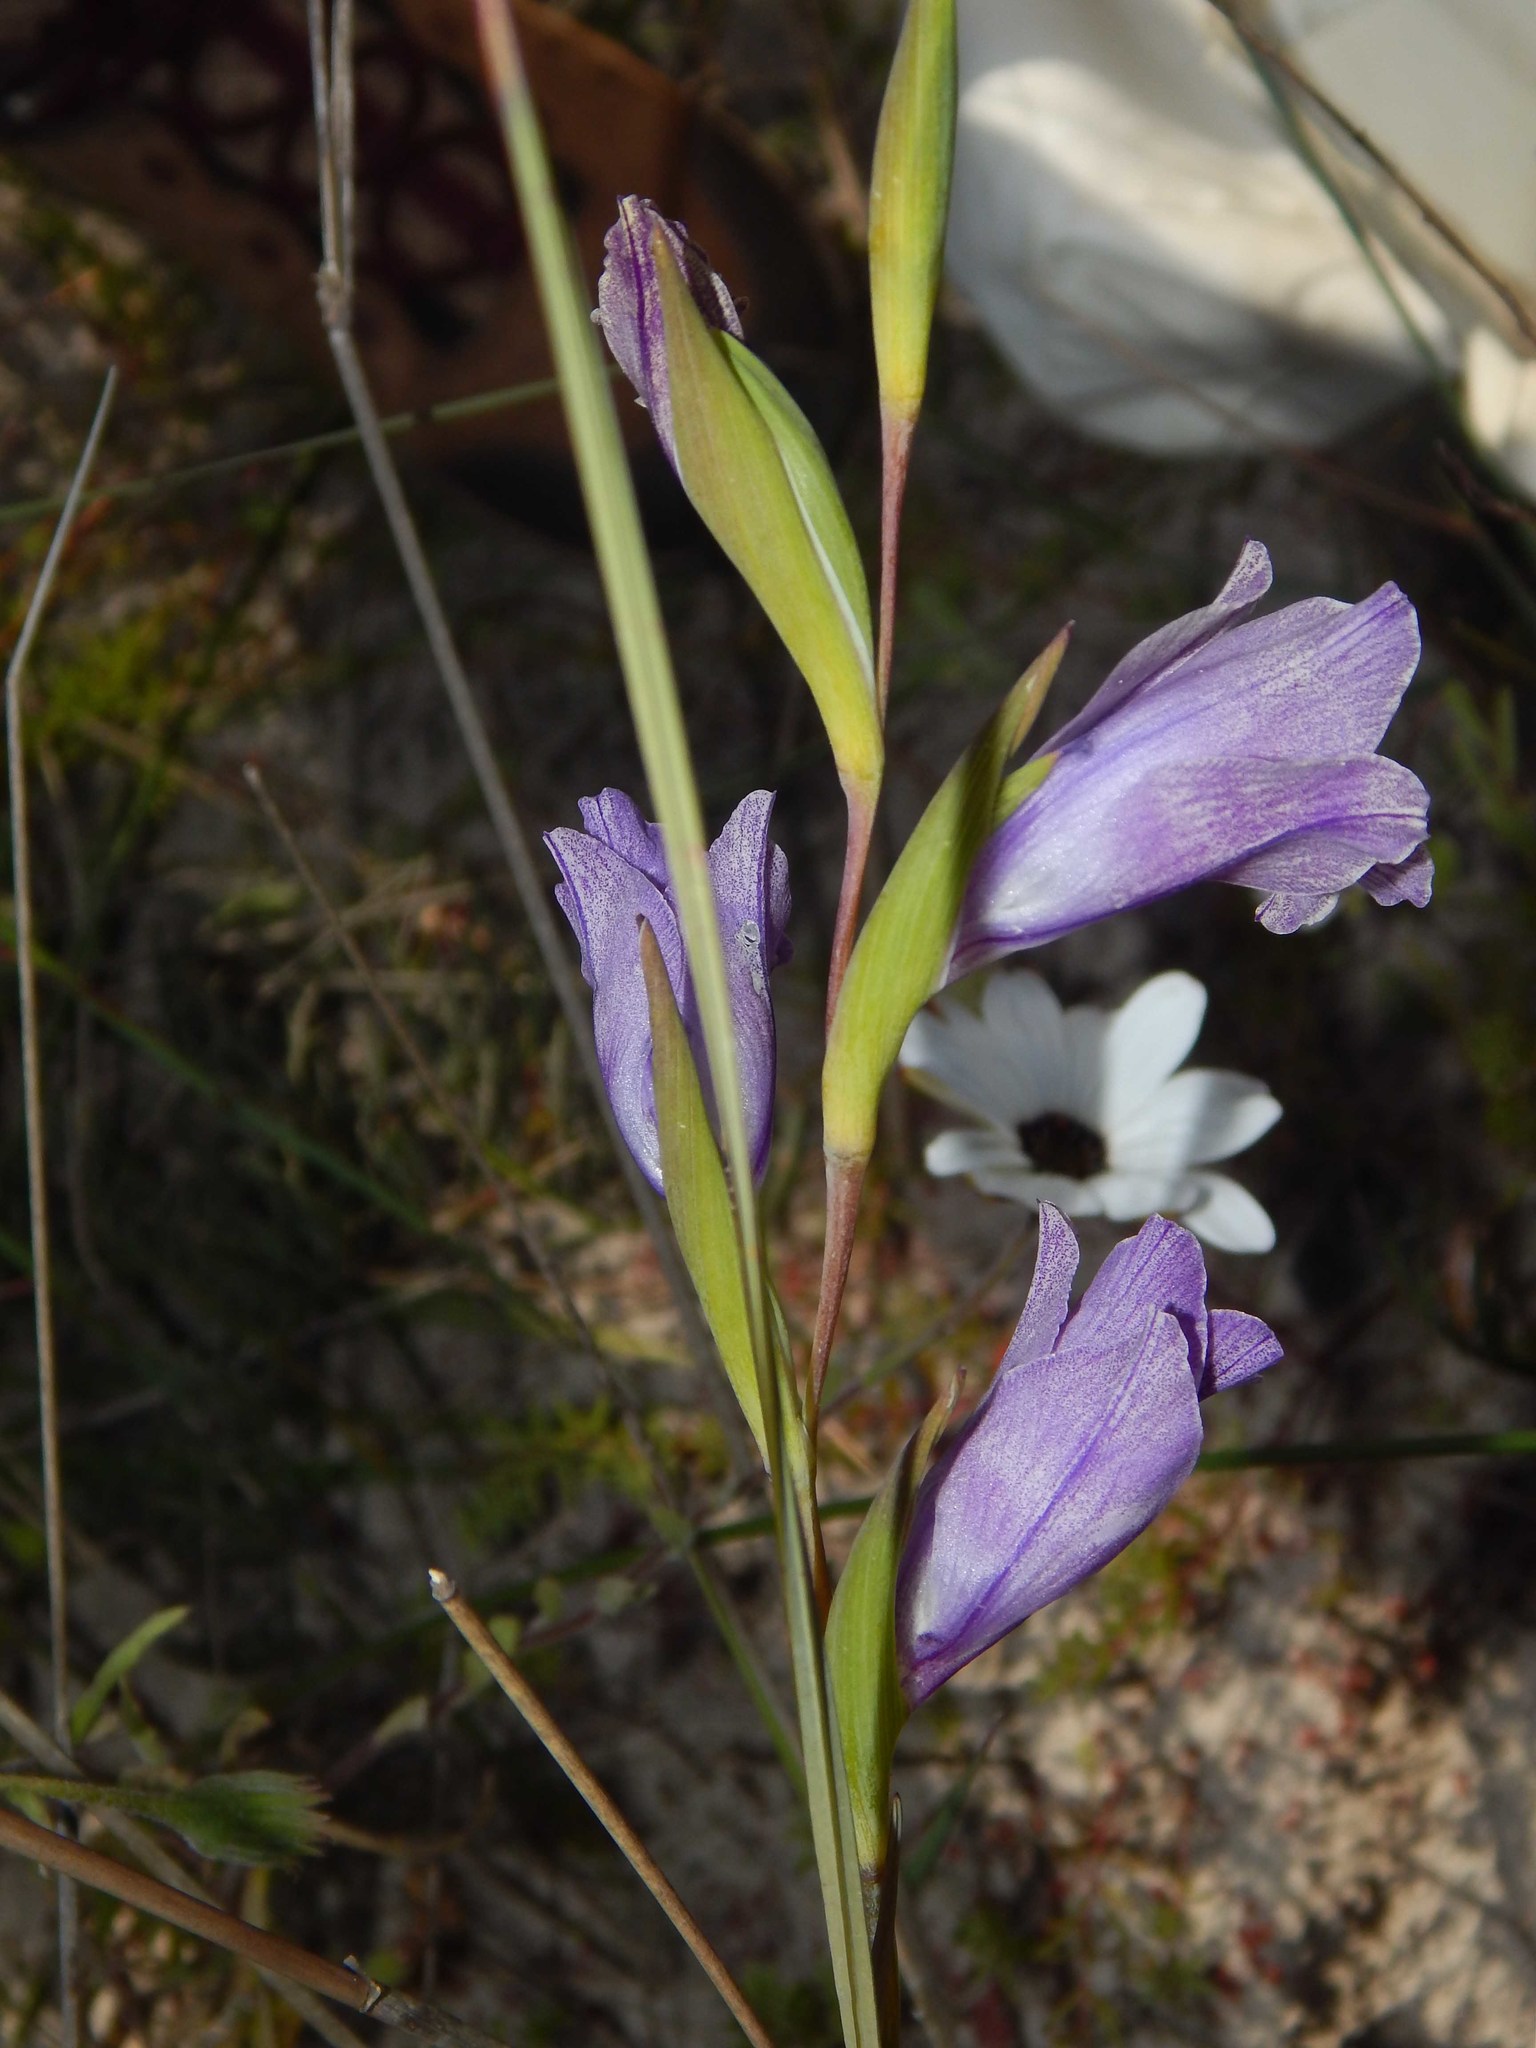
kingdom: Plantae
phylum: Tracheophyta
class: Liliopsida
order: Asparagales
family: Iridaceae
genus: Gladiolus
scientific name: Gladiolus carinatus
